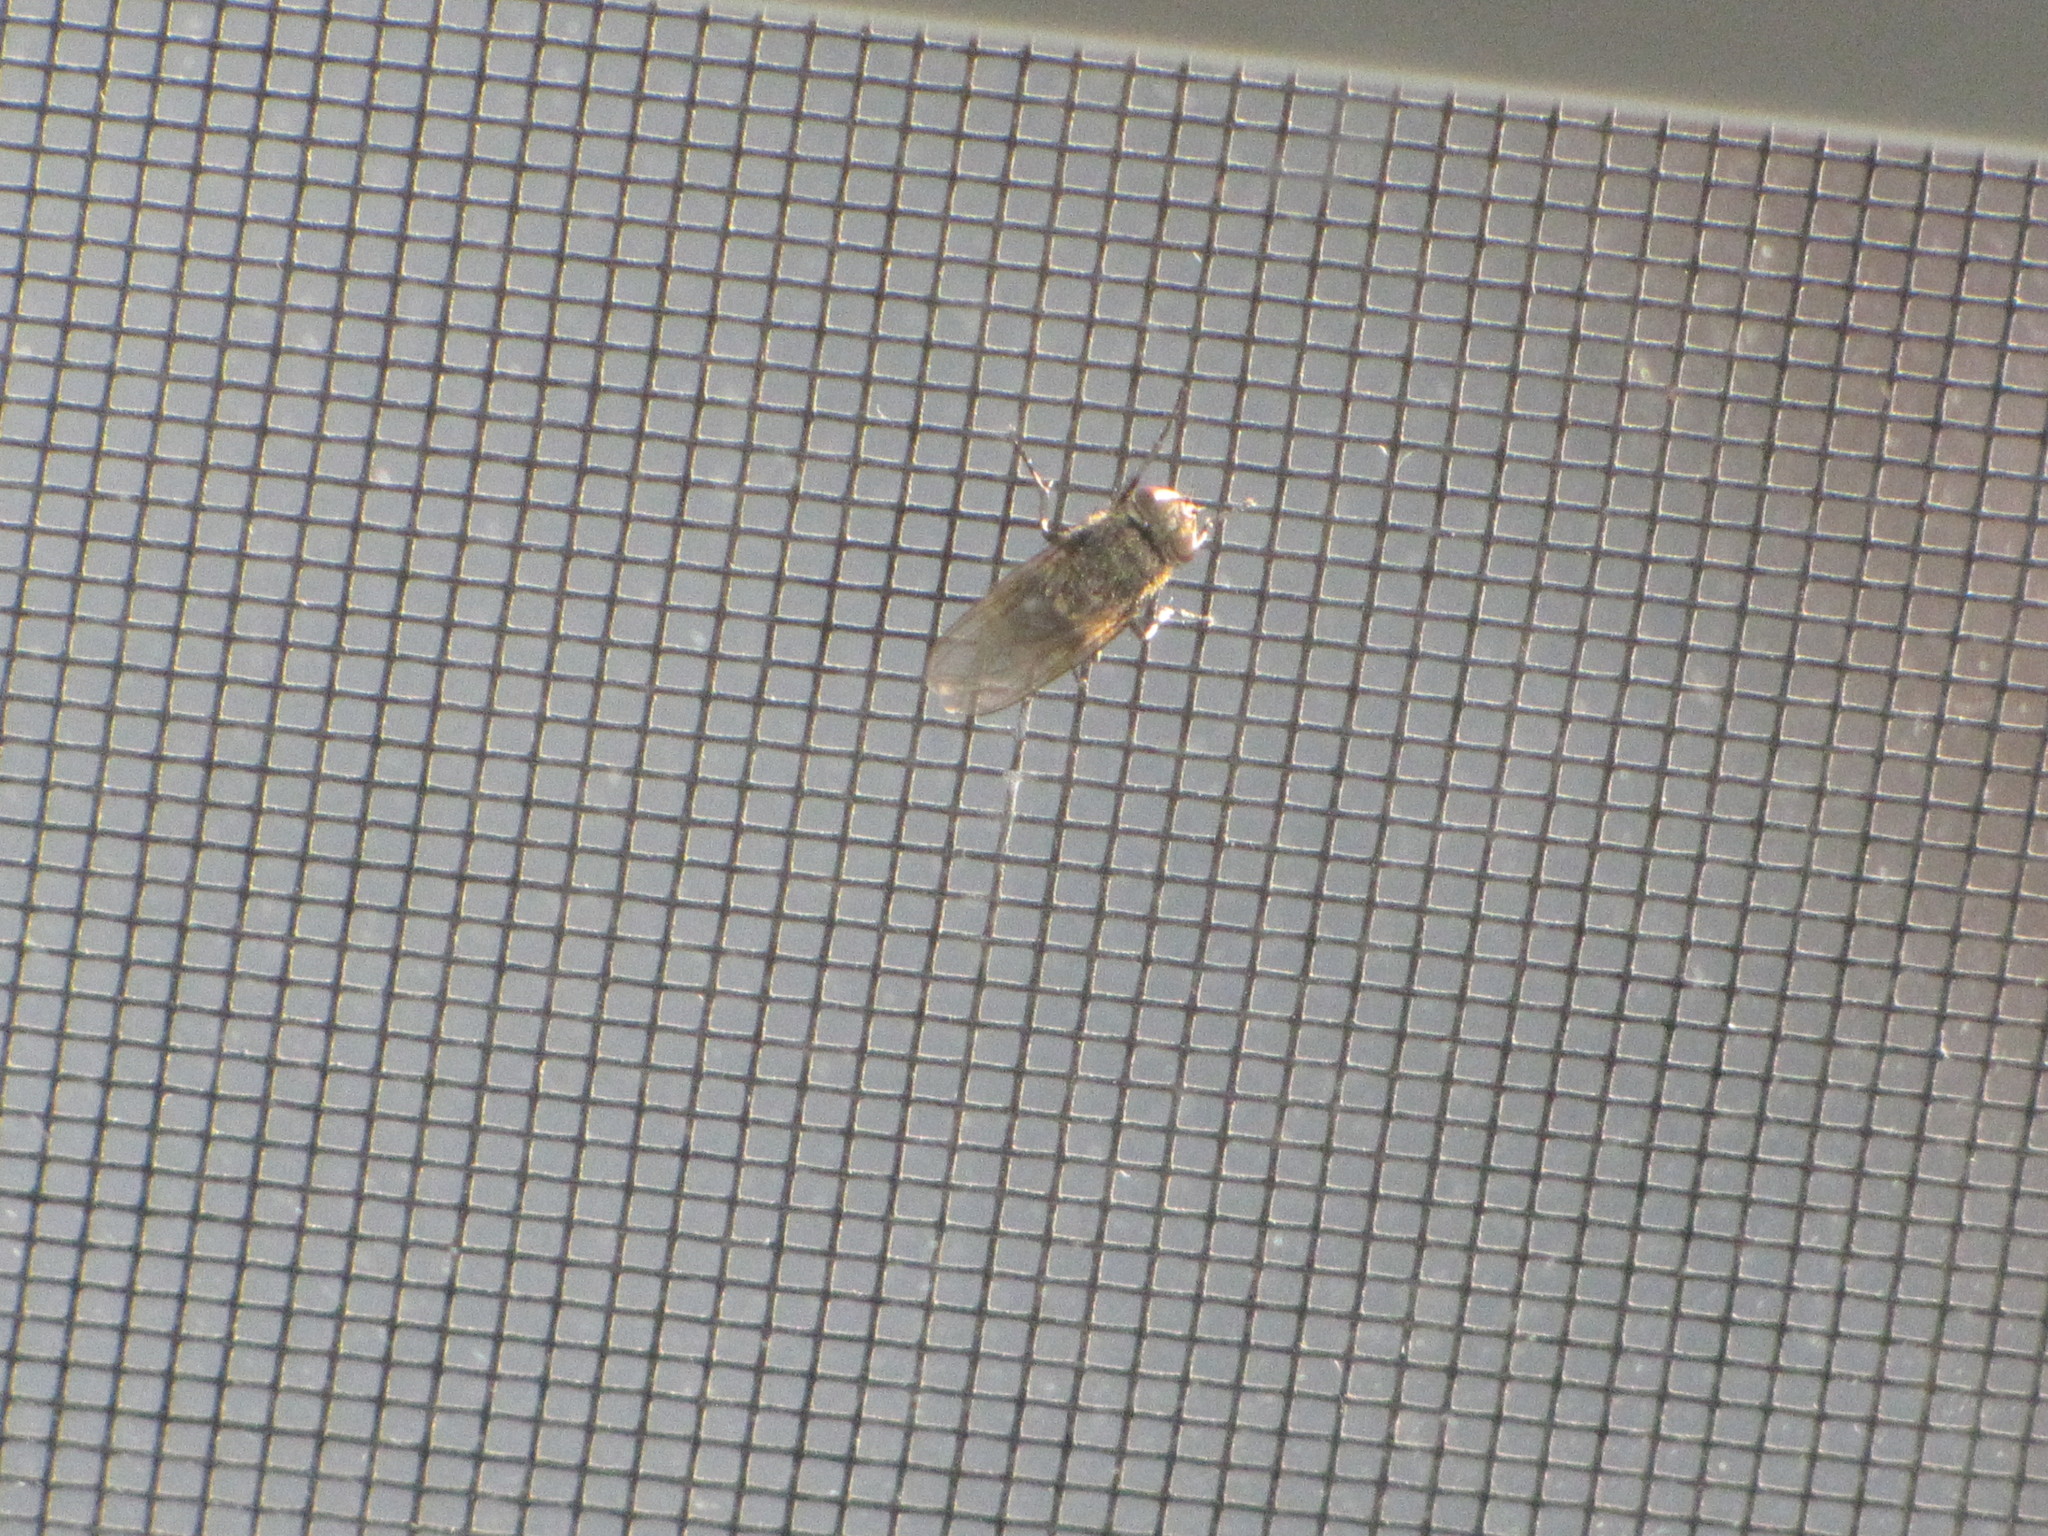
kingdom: Animalia
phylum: Arthropoda
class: Insecta
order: Diptera
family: Polleniidae
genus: Pollenia
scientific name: Pollenia
